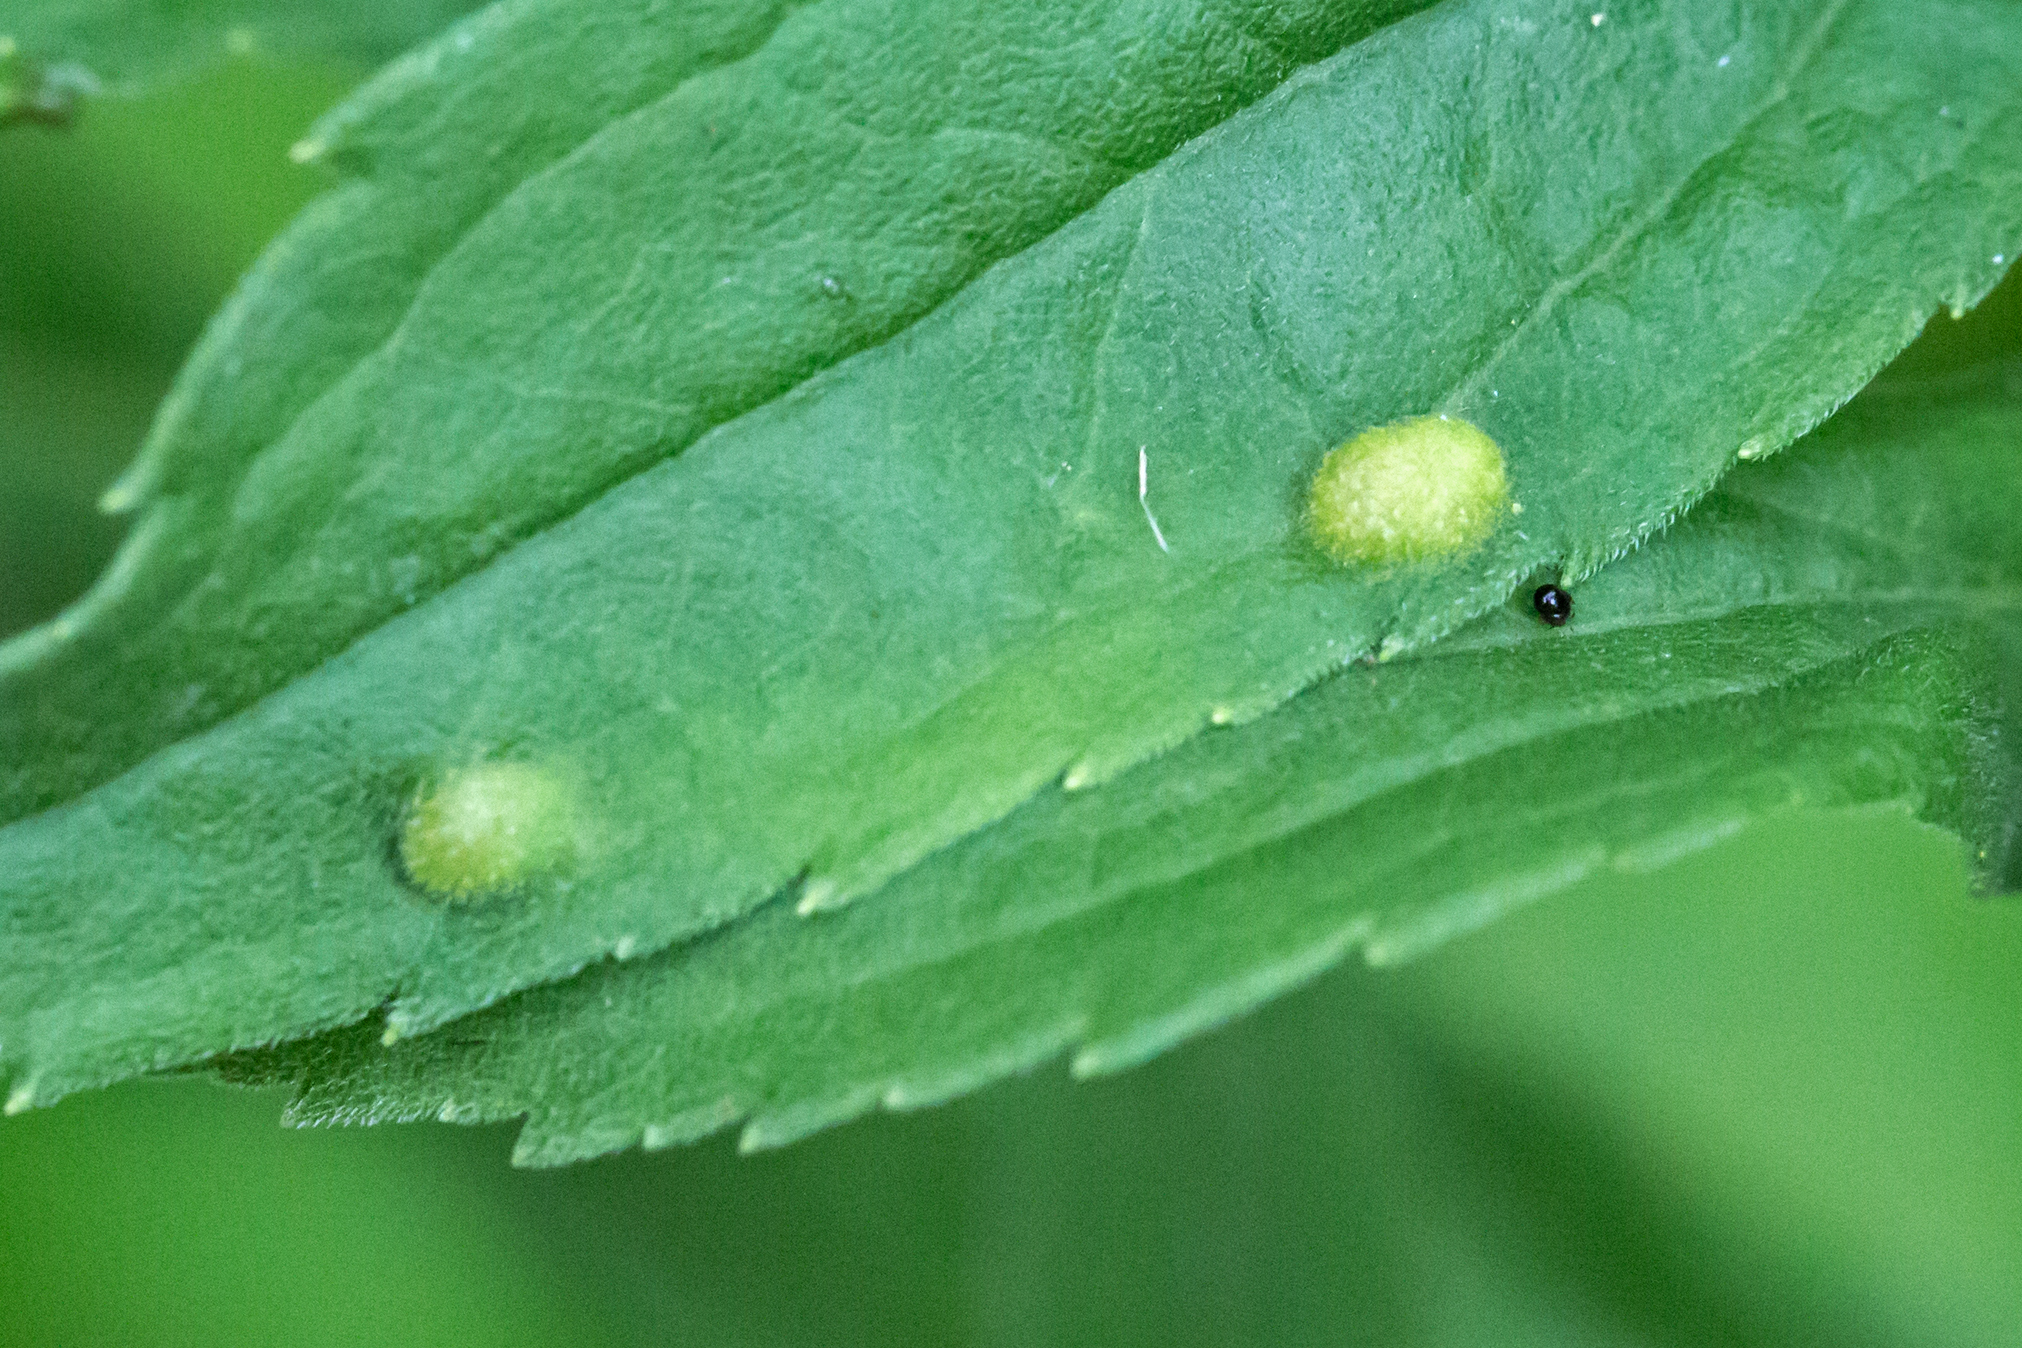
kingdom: Animalia
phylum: Arthropoda
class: Insecta
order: Diptera
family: Cecidomyiidae
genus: Asphondylia
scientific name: Asphondylia solidaginis
